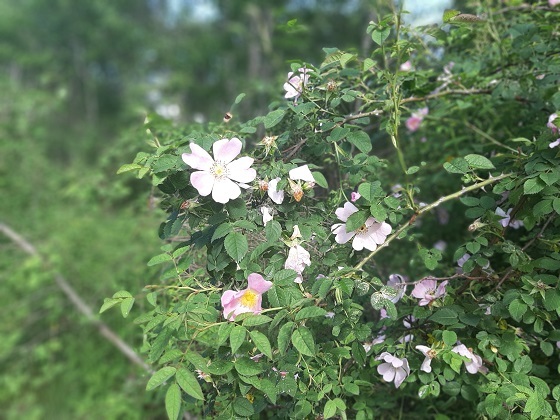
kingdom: Plantae
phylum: Tracheophyta
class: Magnoliopsida
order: Rosales
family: Rosaceae
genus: Rosa
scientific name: Rosa canina
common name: Dog rose
